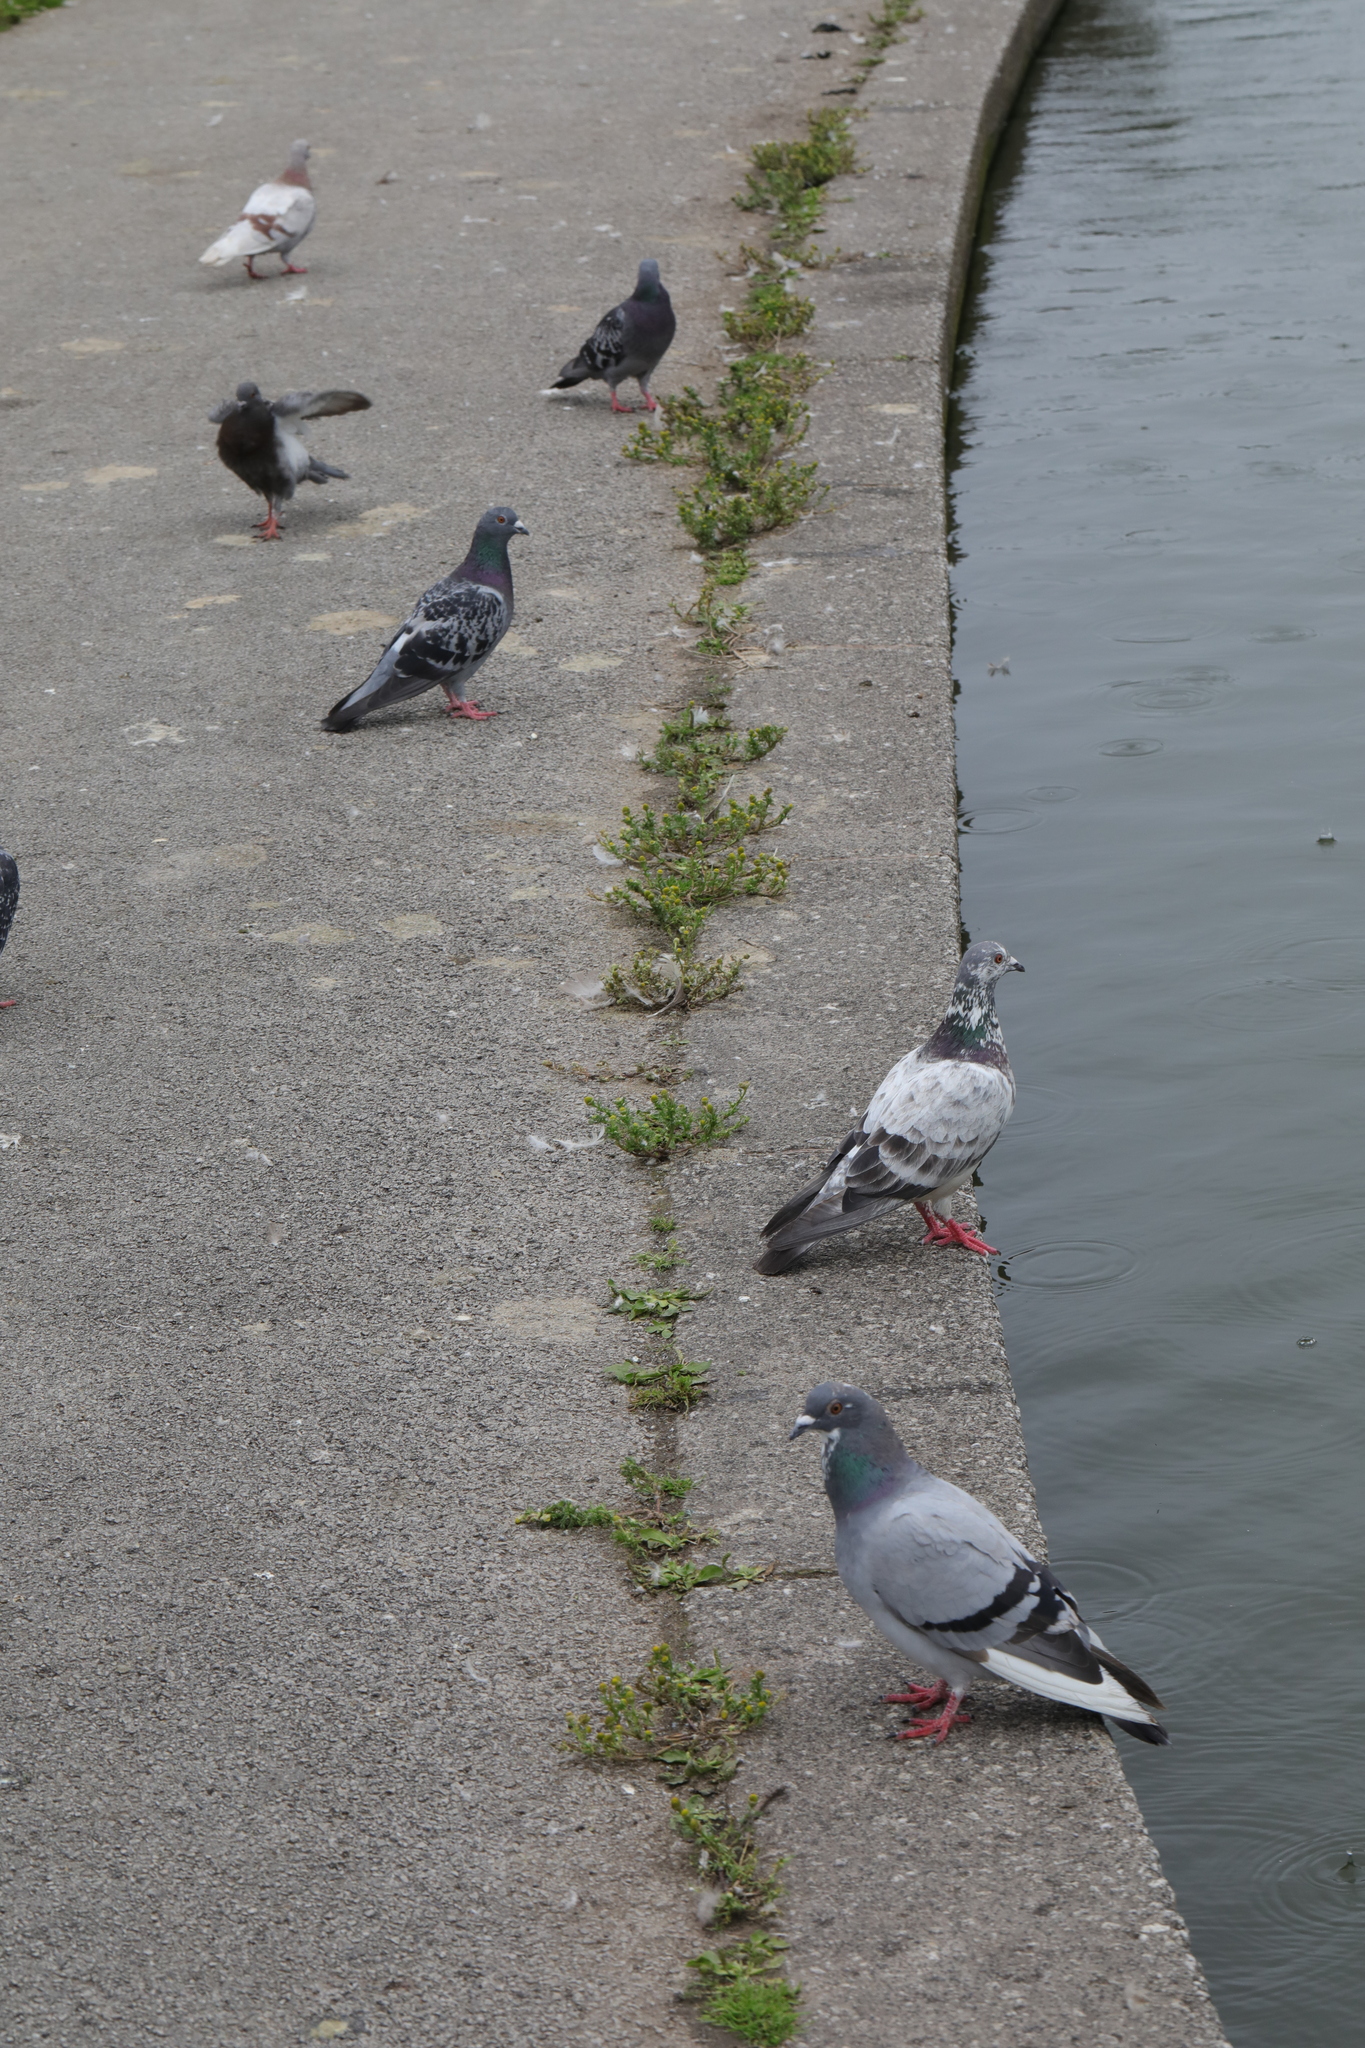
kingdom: Animalia
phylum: Chordata
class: Aves
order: Columbiformes
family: Columbidae
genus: Columba
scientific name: Columba livia
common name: Rock pigeon
